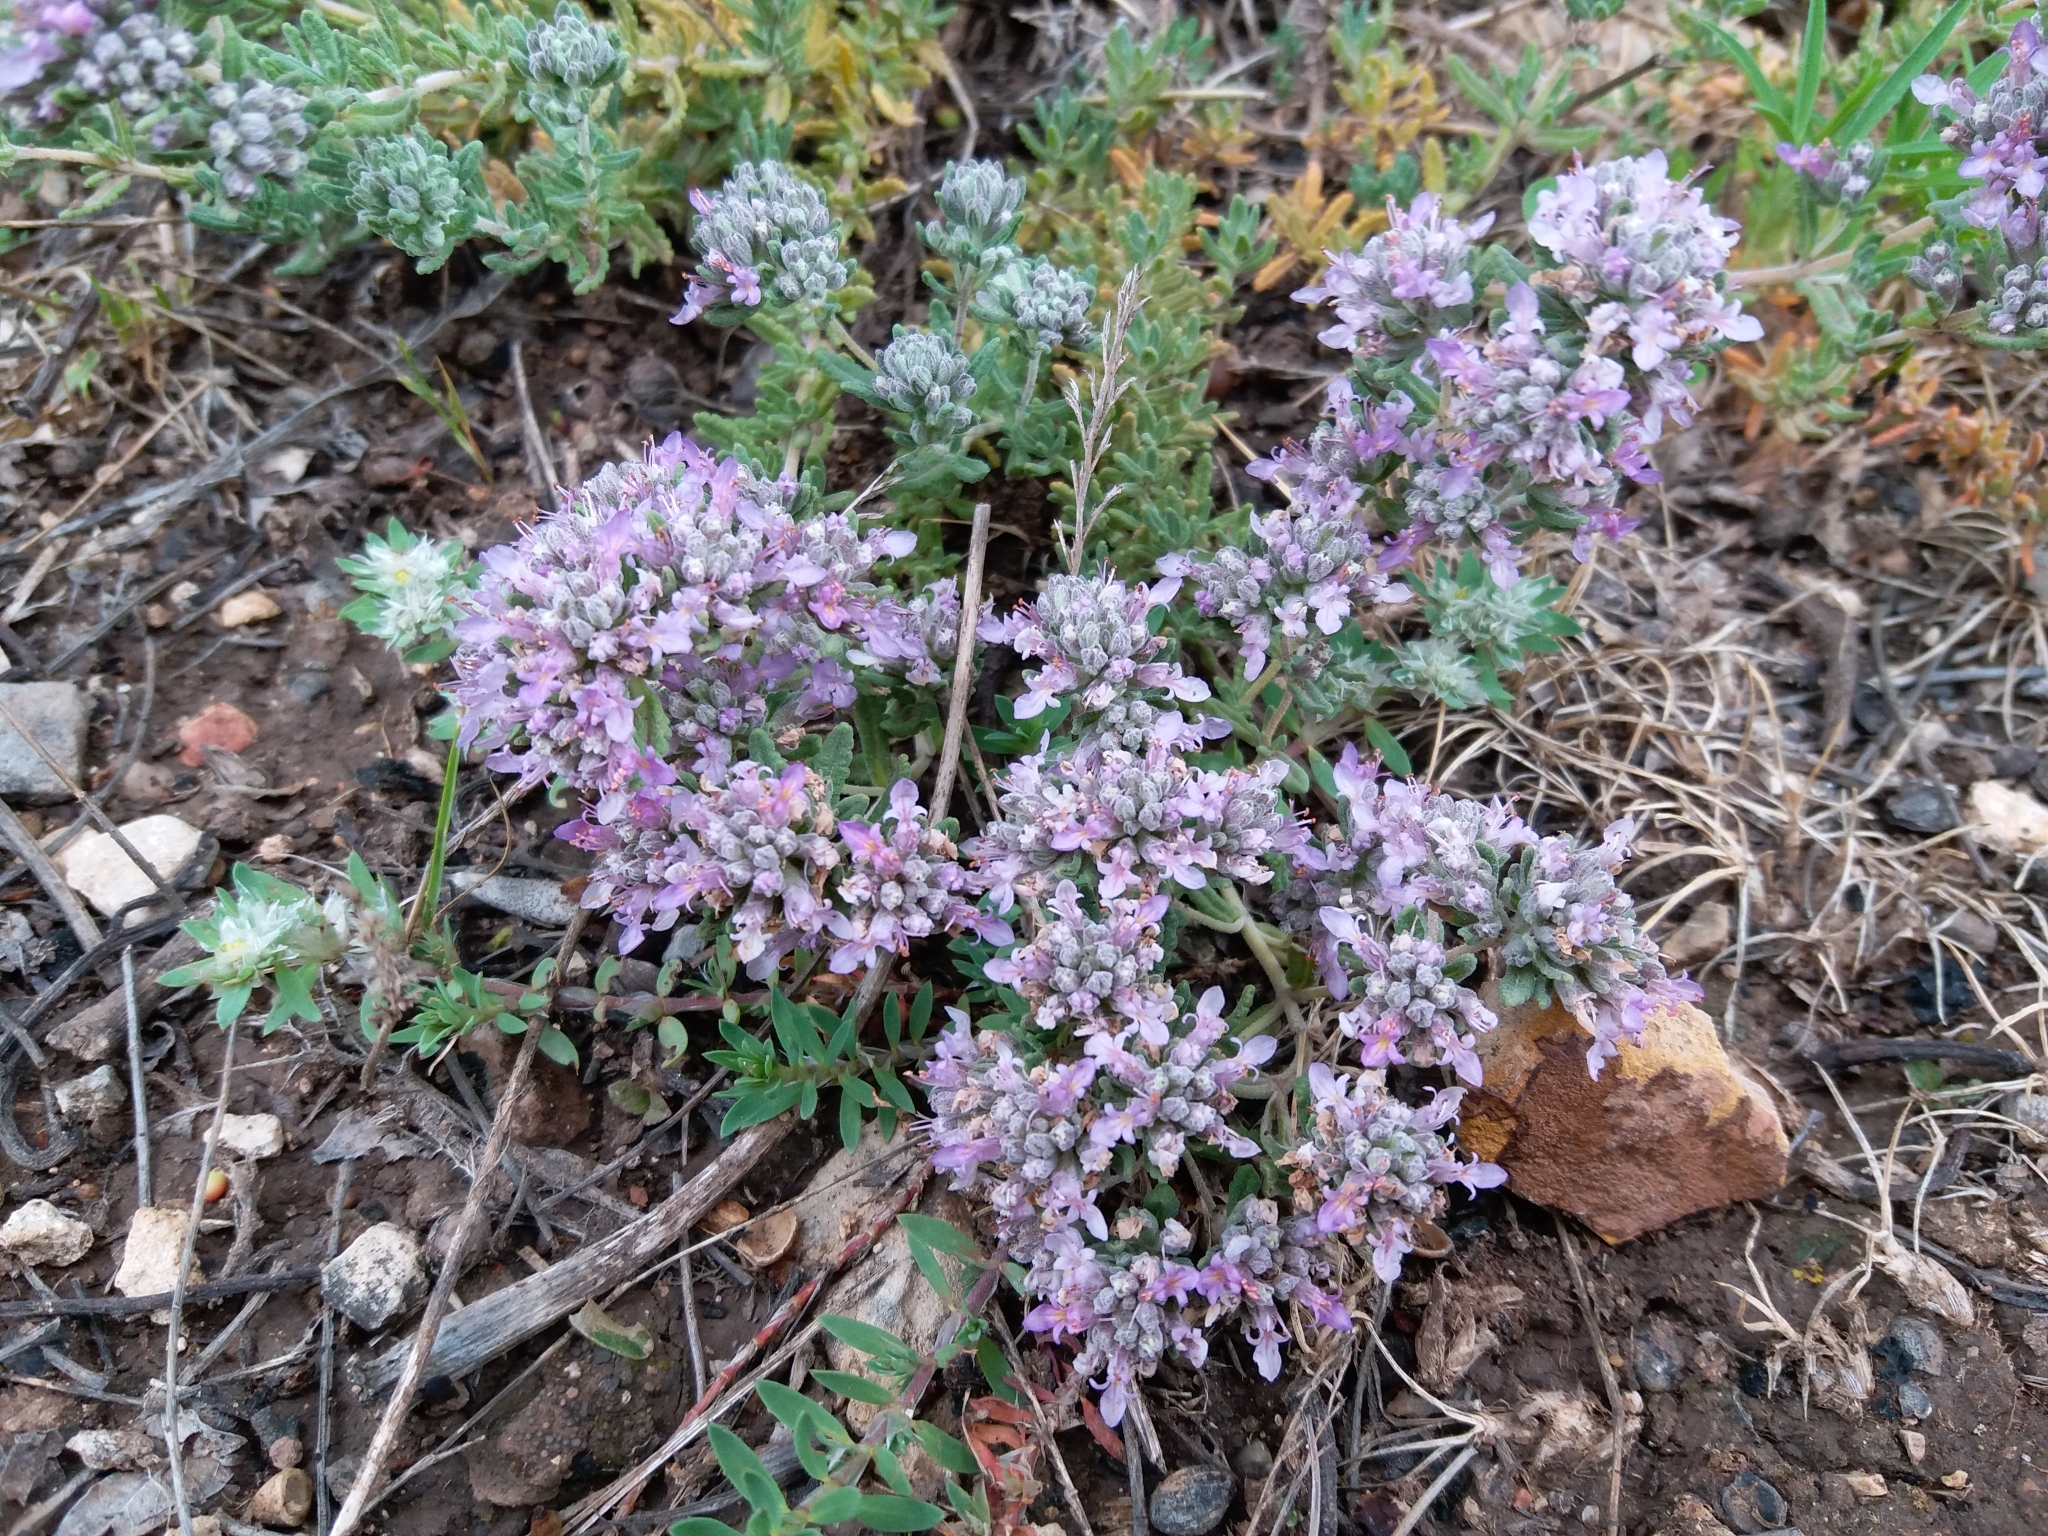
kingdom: Plantae
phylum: Tracheophyta
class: Magnoliopsida
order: Lamiales
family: Lamiaceae
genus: Teucrium
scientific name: Teucrium capitatum
